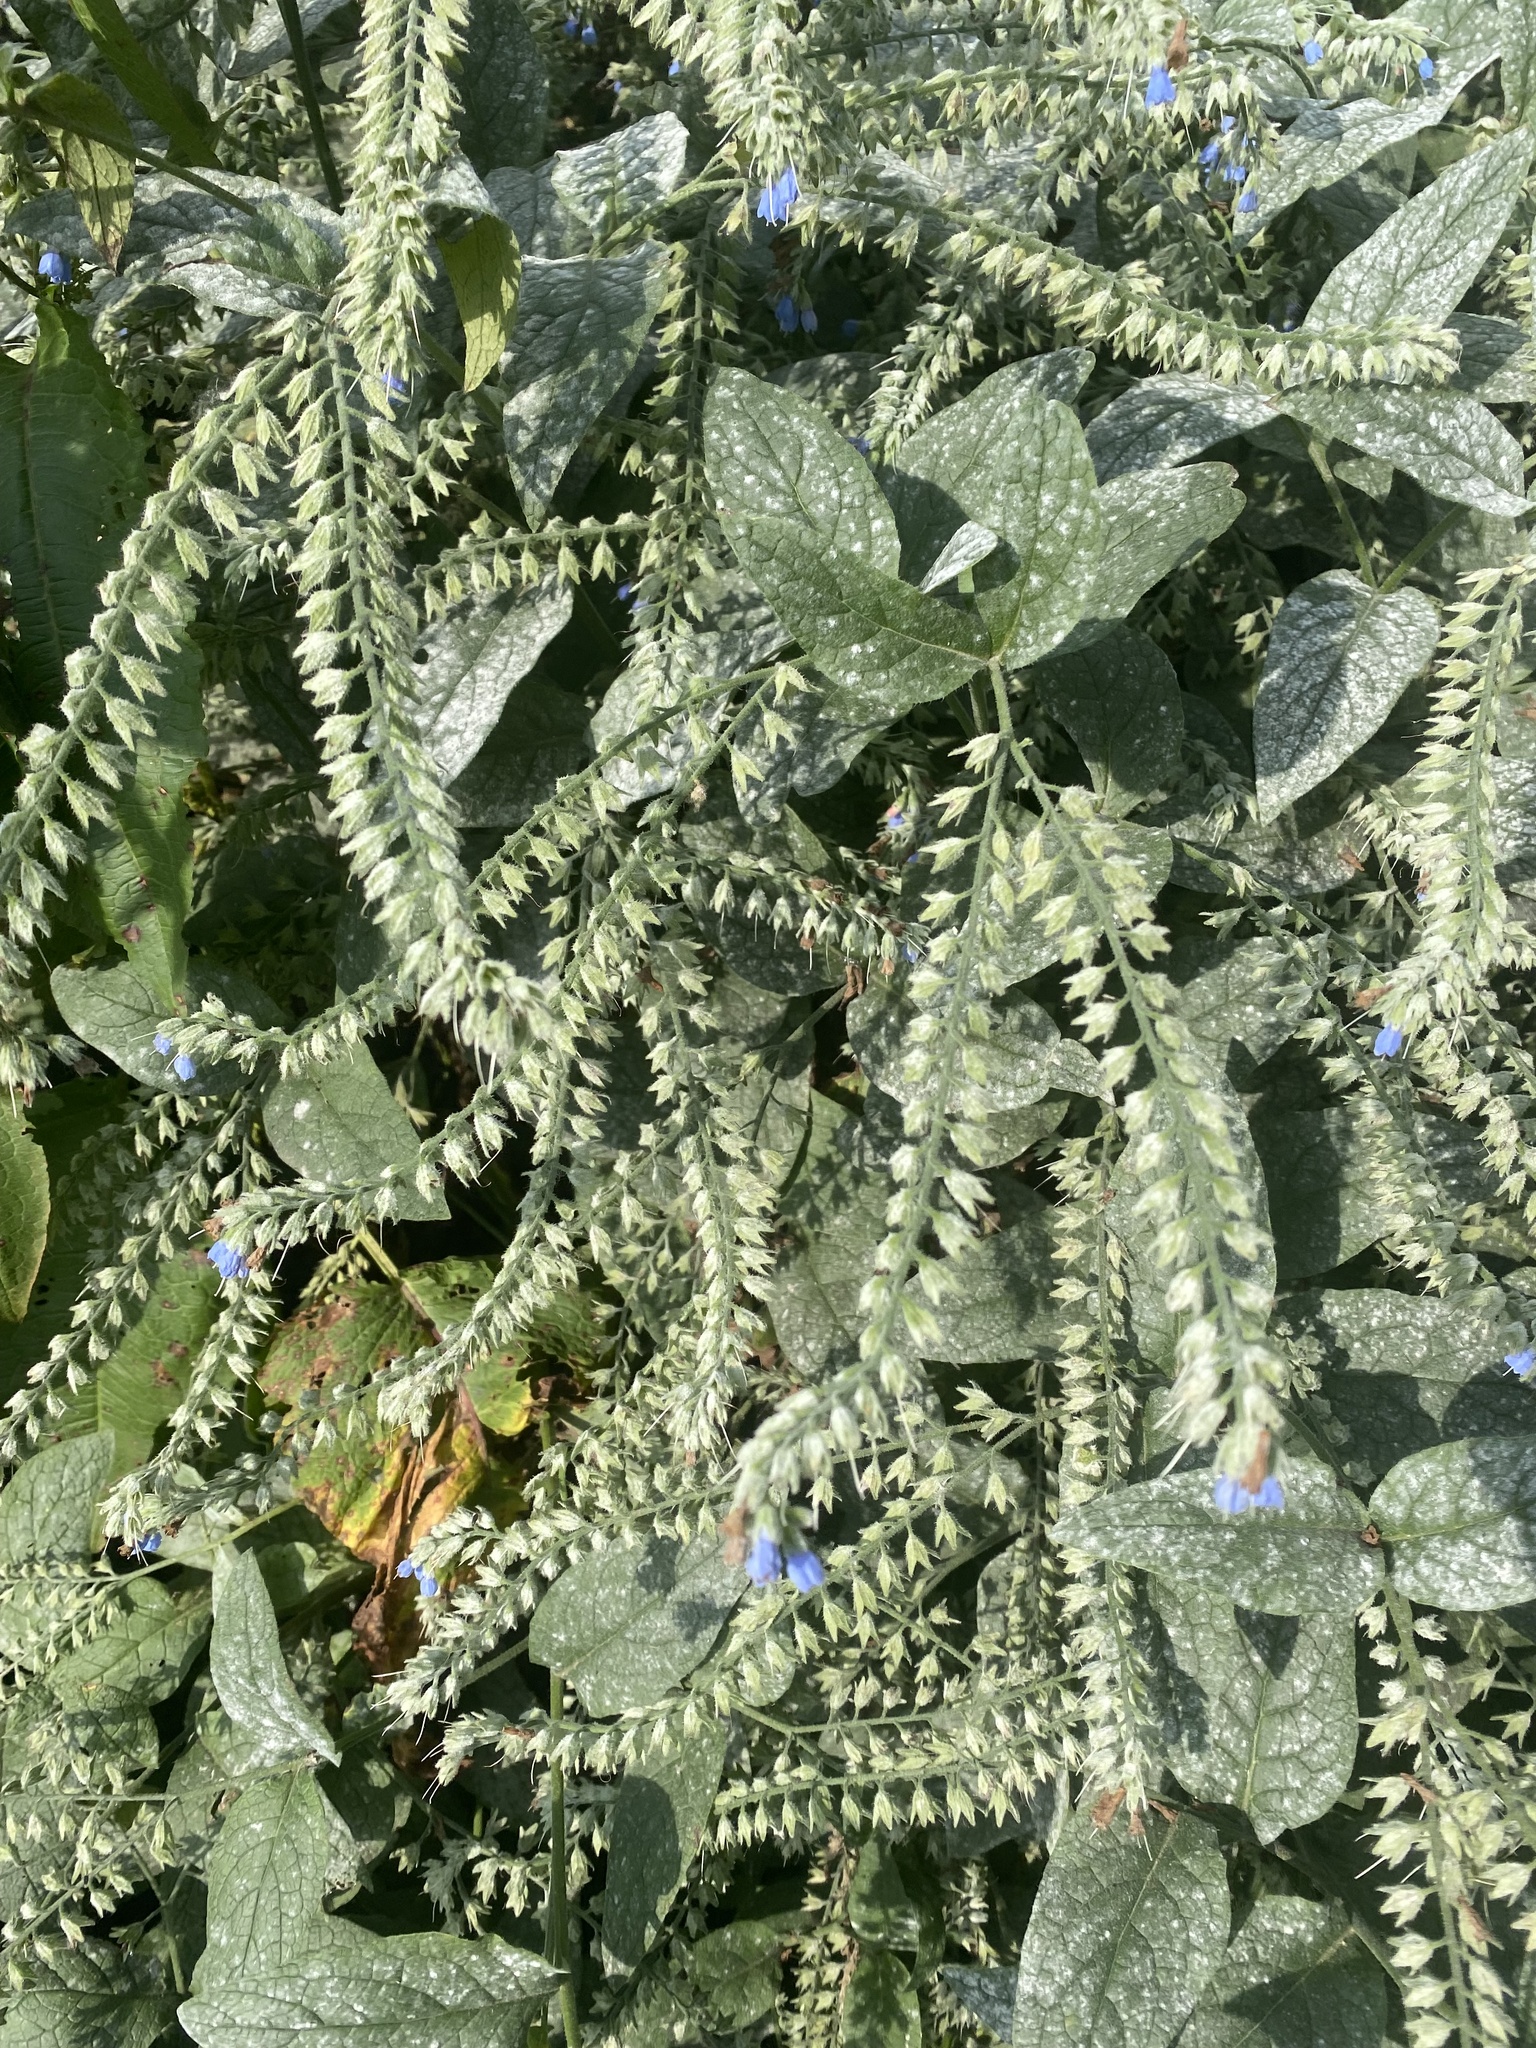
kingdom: Plantae
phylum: Tracheophyta
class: Magnoliopsida
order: Boraginales
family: Boraginaceae
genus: Symphytum
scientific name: Symphytum caucasicum
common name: Caucasian comfrey
